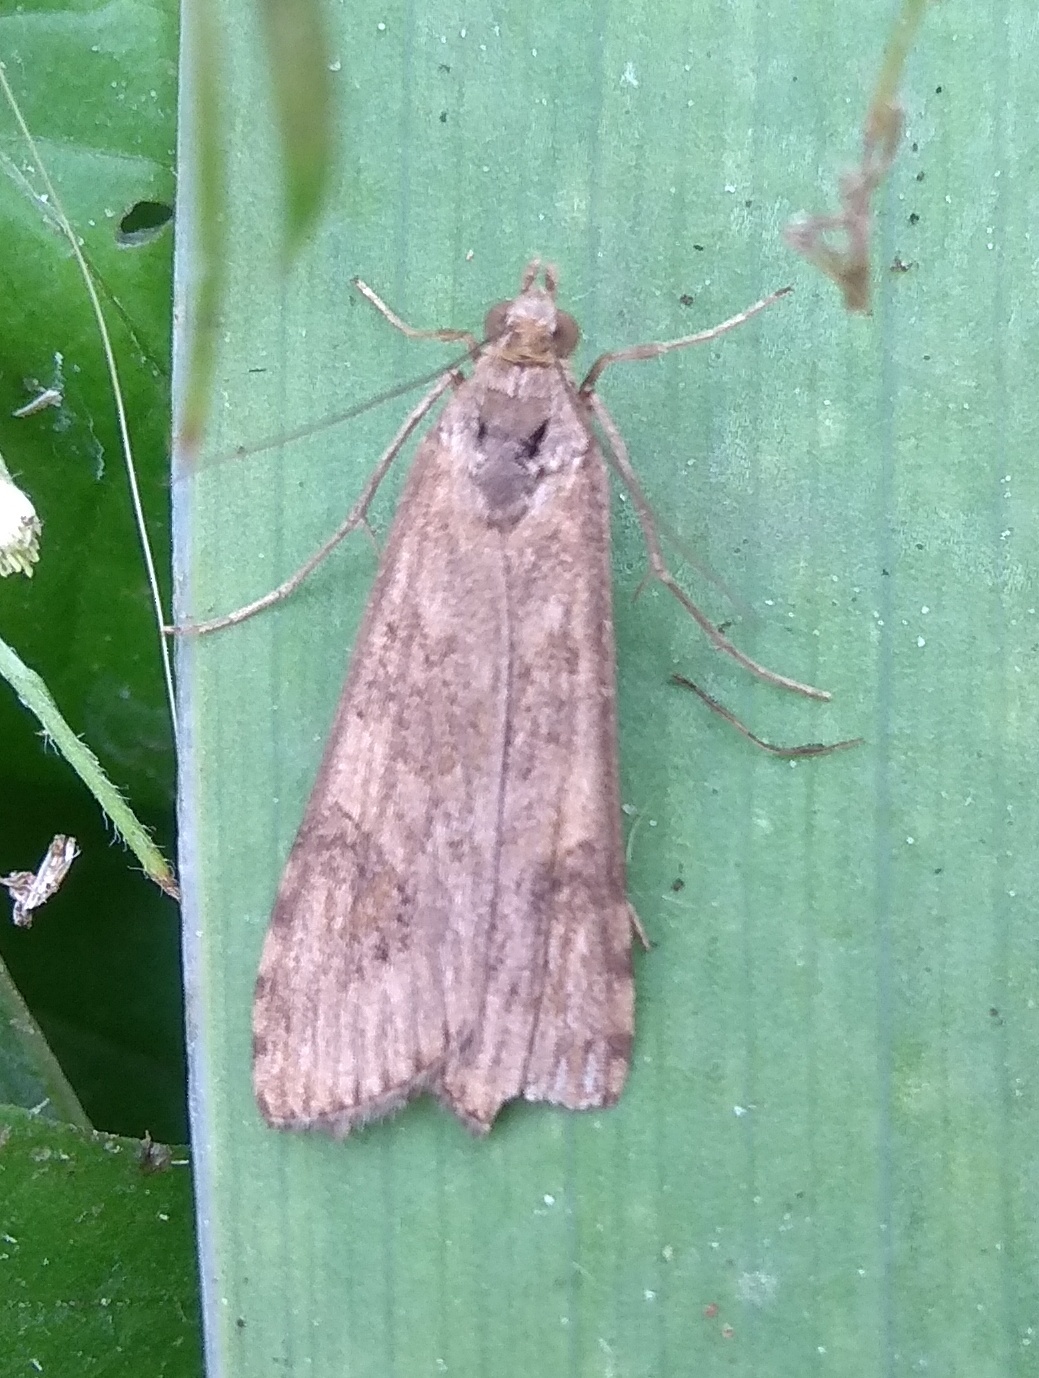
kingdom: Animalia
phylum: Arthropoda
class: Insecta
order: Lepidoptera
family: Crambidae
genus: Nomophila
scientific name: Nomophila noctuella
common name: Rush veneer
